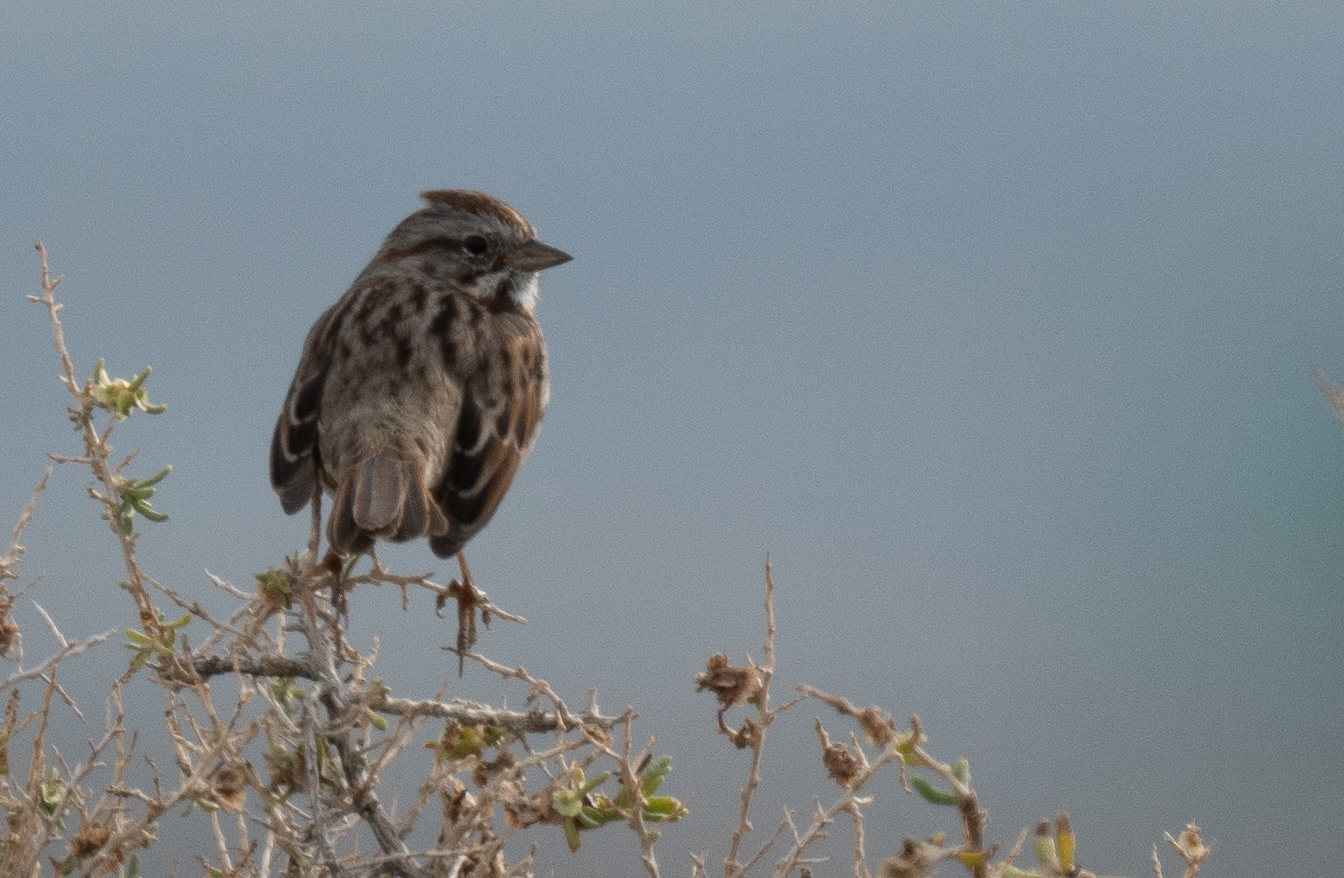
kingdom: Animalia
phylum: Chordata
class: Aves
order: Passeriformes
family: Passerellidae
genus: Melospiza
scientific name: Melospiza melodia
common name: Song sparrow
